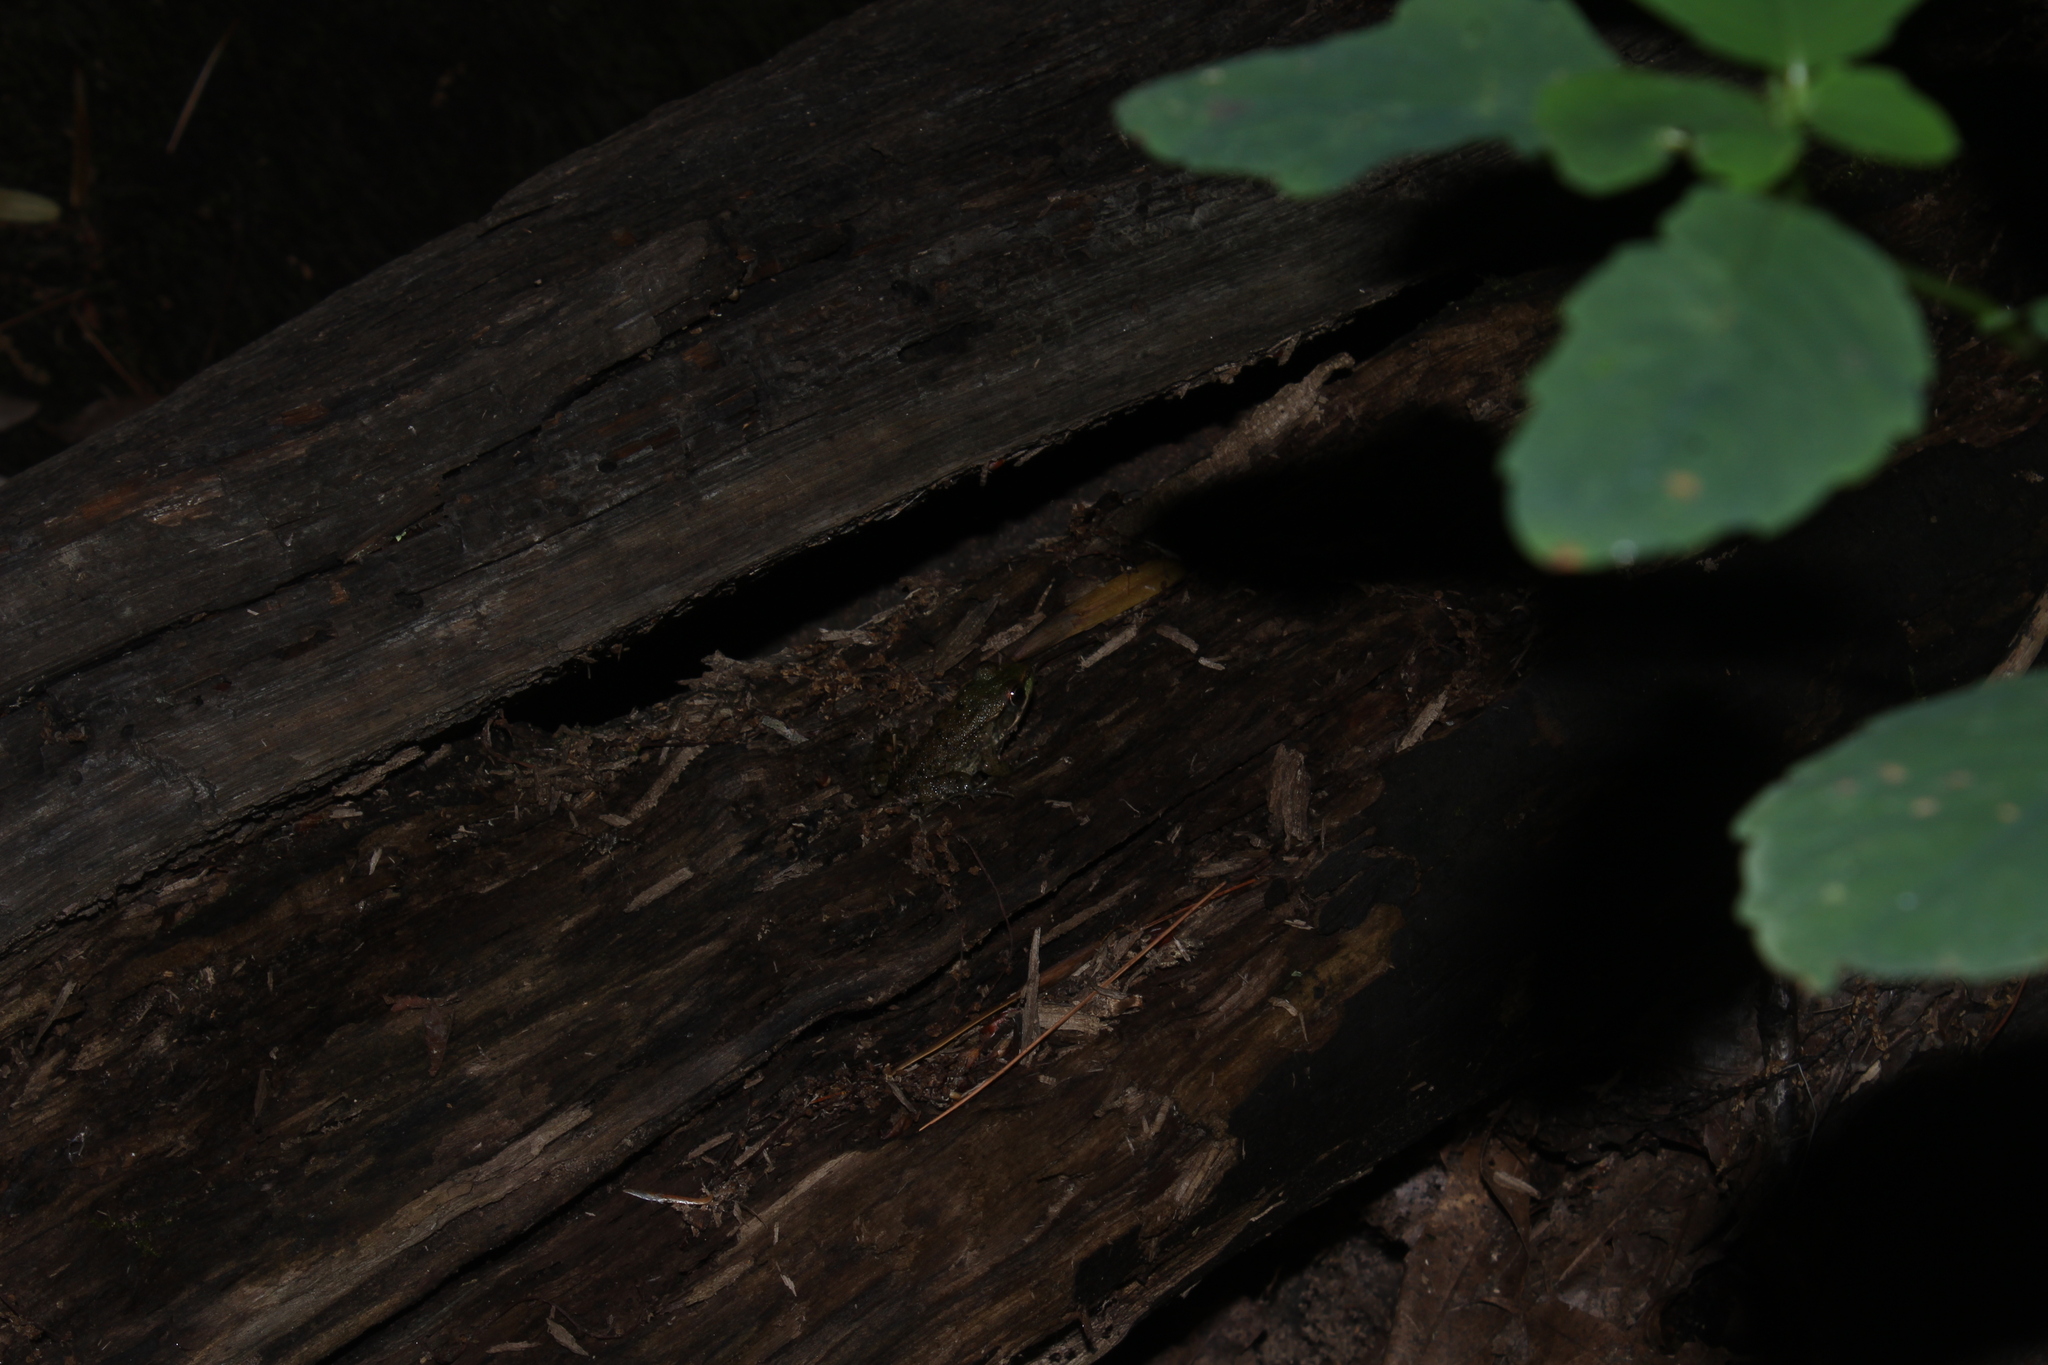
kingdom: Animalia
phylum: Chordata
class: Amphibia
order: Anura
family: Ranidae
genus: Lithobates
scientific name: Lithobates clamitans
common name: Green frog
